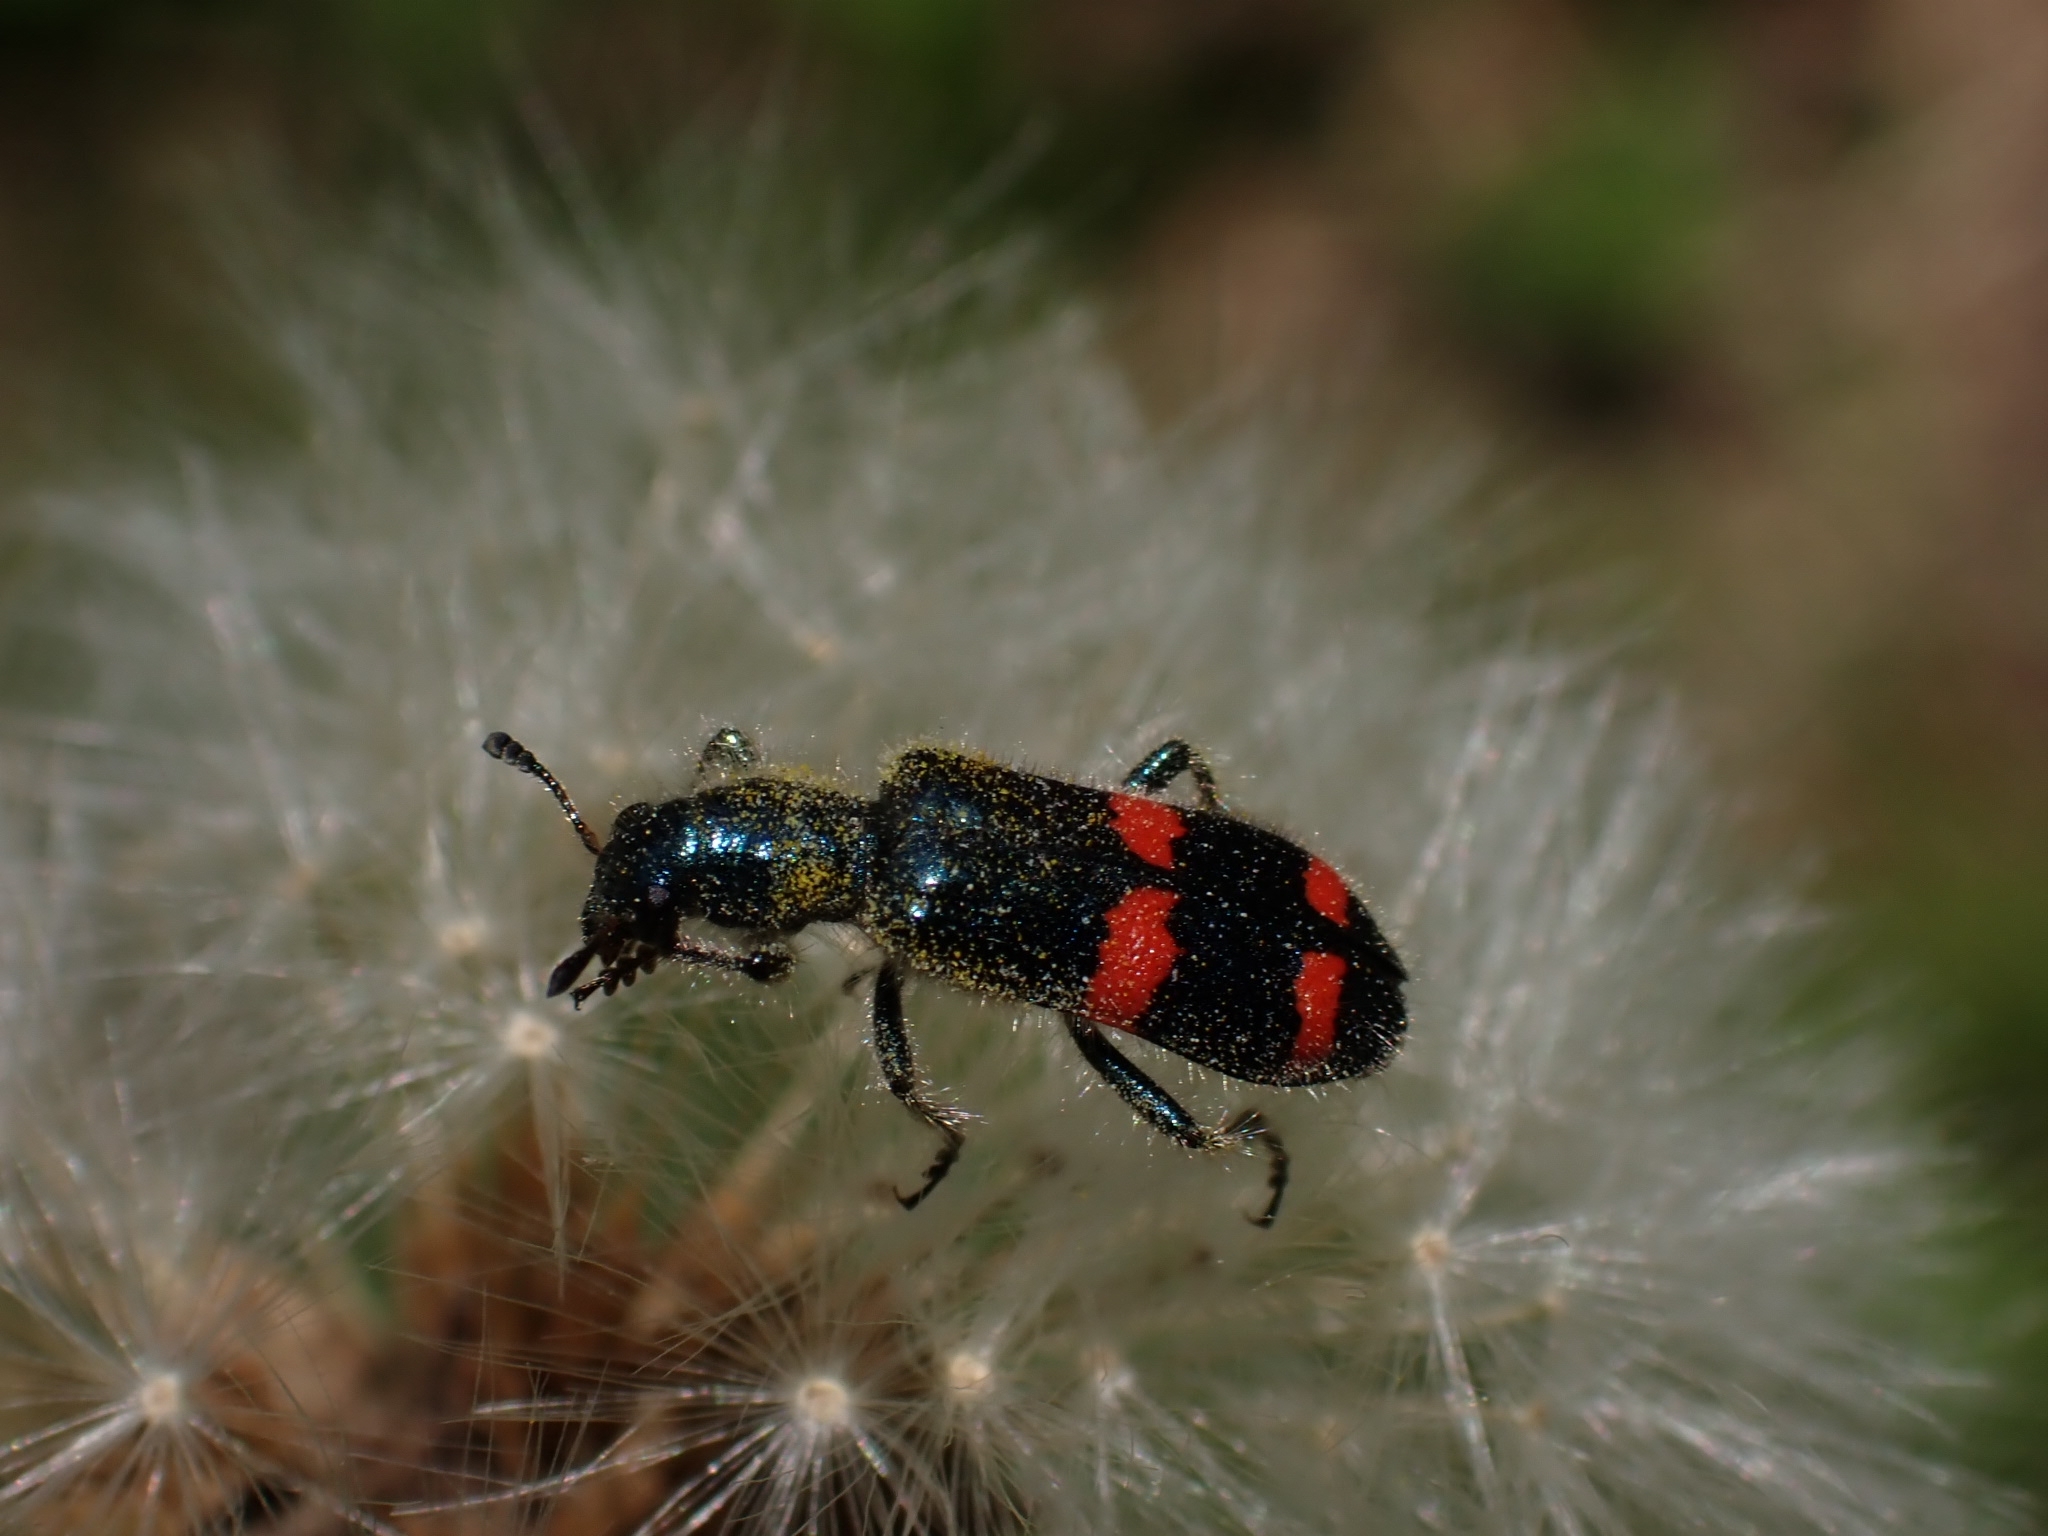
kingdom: Animalia
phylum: Arthropoda
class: Insecta
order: Coleoptera
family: Cleridae
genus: Trichodes
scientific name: Trichodes
